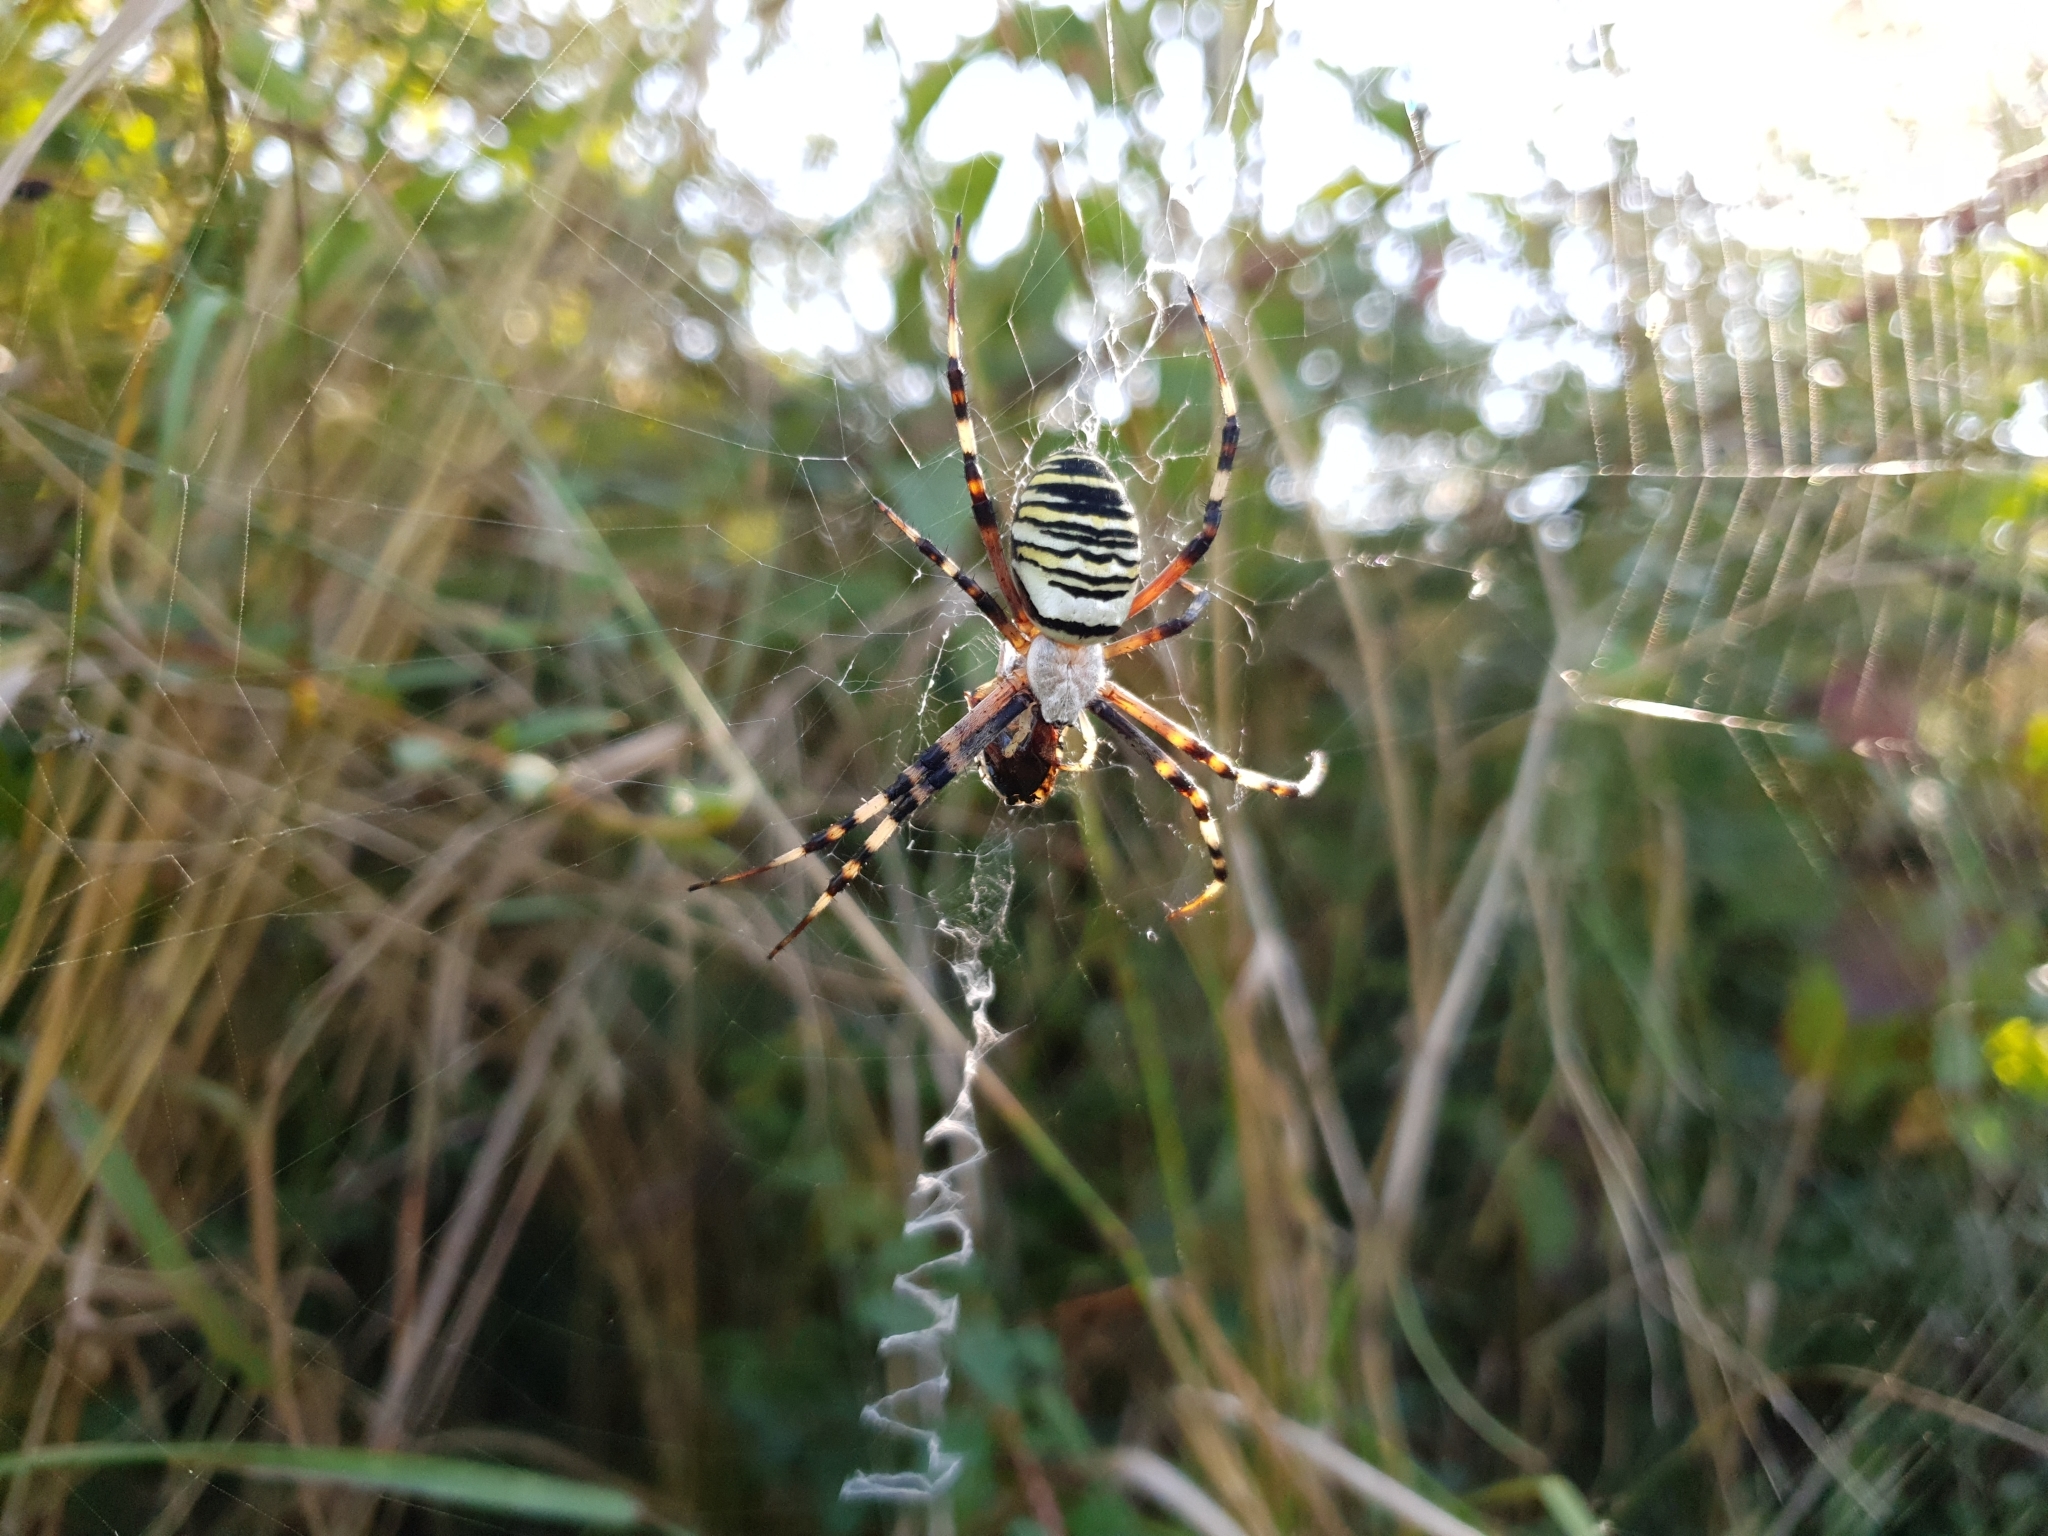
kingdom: Animalia
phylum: Arthropoda
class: Arachnida
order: Araneae
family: Araneidae
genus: Argiope
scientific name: Argiope bruennichi
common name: Wasp spider
